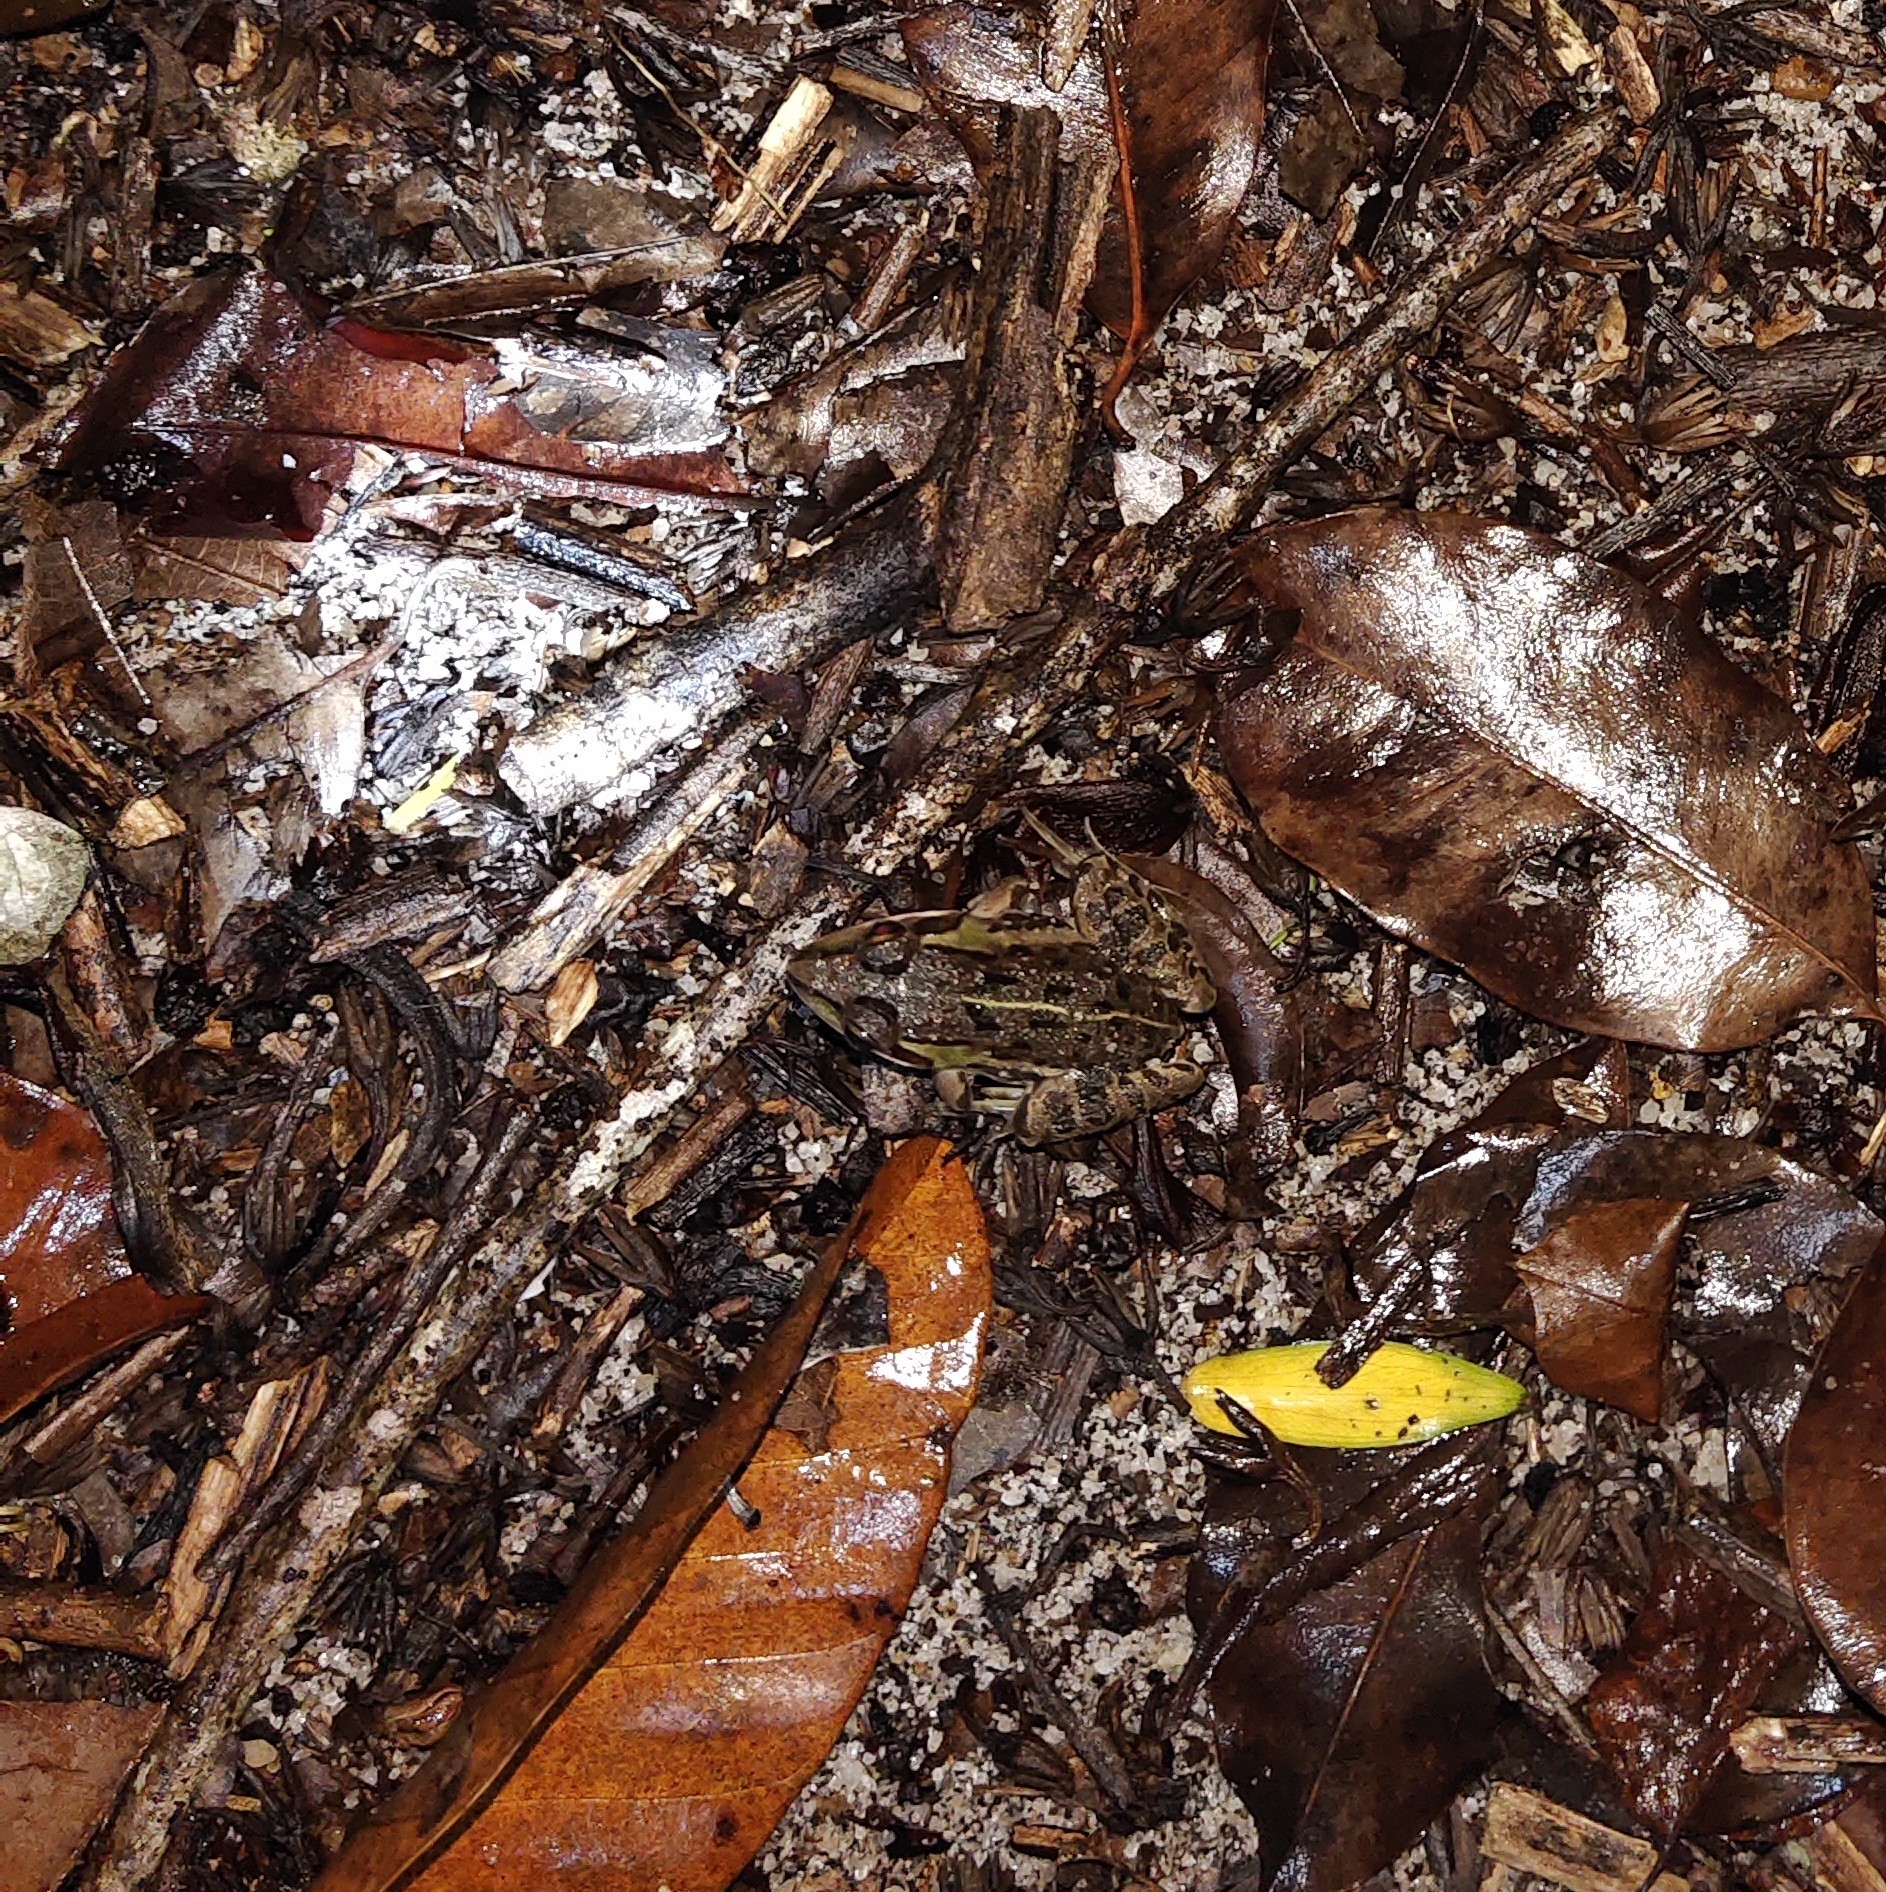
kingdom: Animalia
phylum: Chordata
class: Amphibia
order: Anura
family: Dicroglossidae
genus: Hoplobatrachus
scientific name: Hoplobatrachus tigerinus
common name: Indian bullfrog
